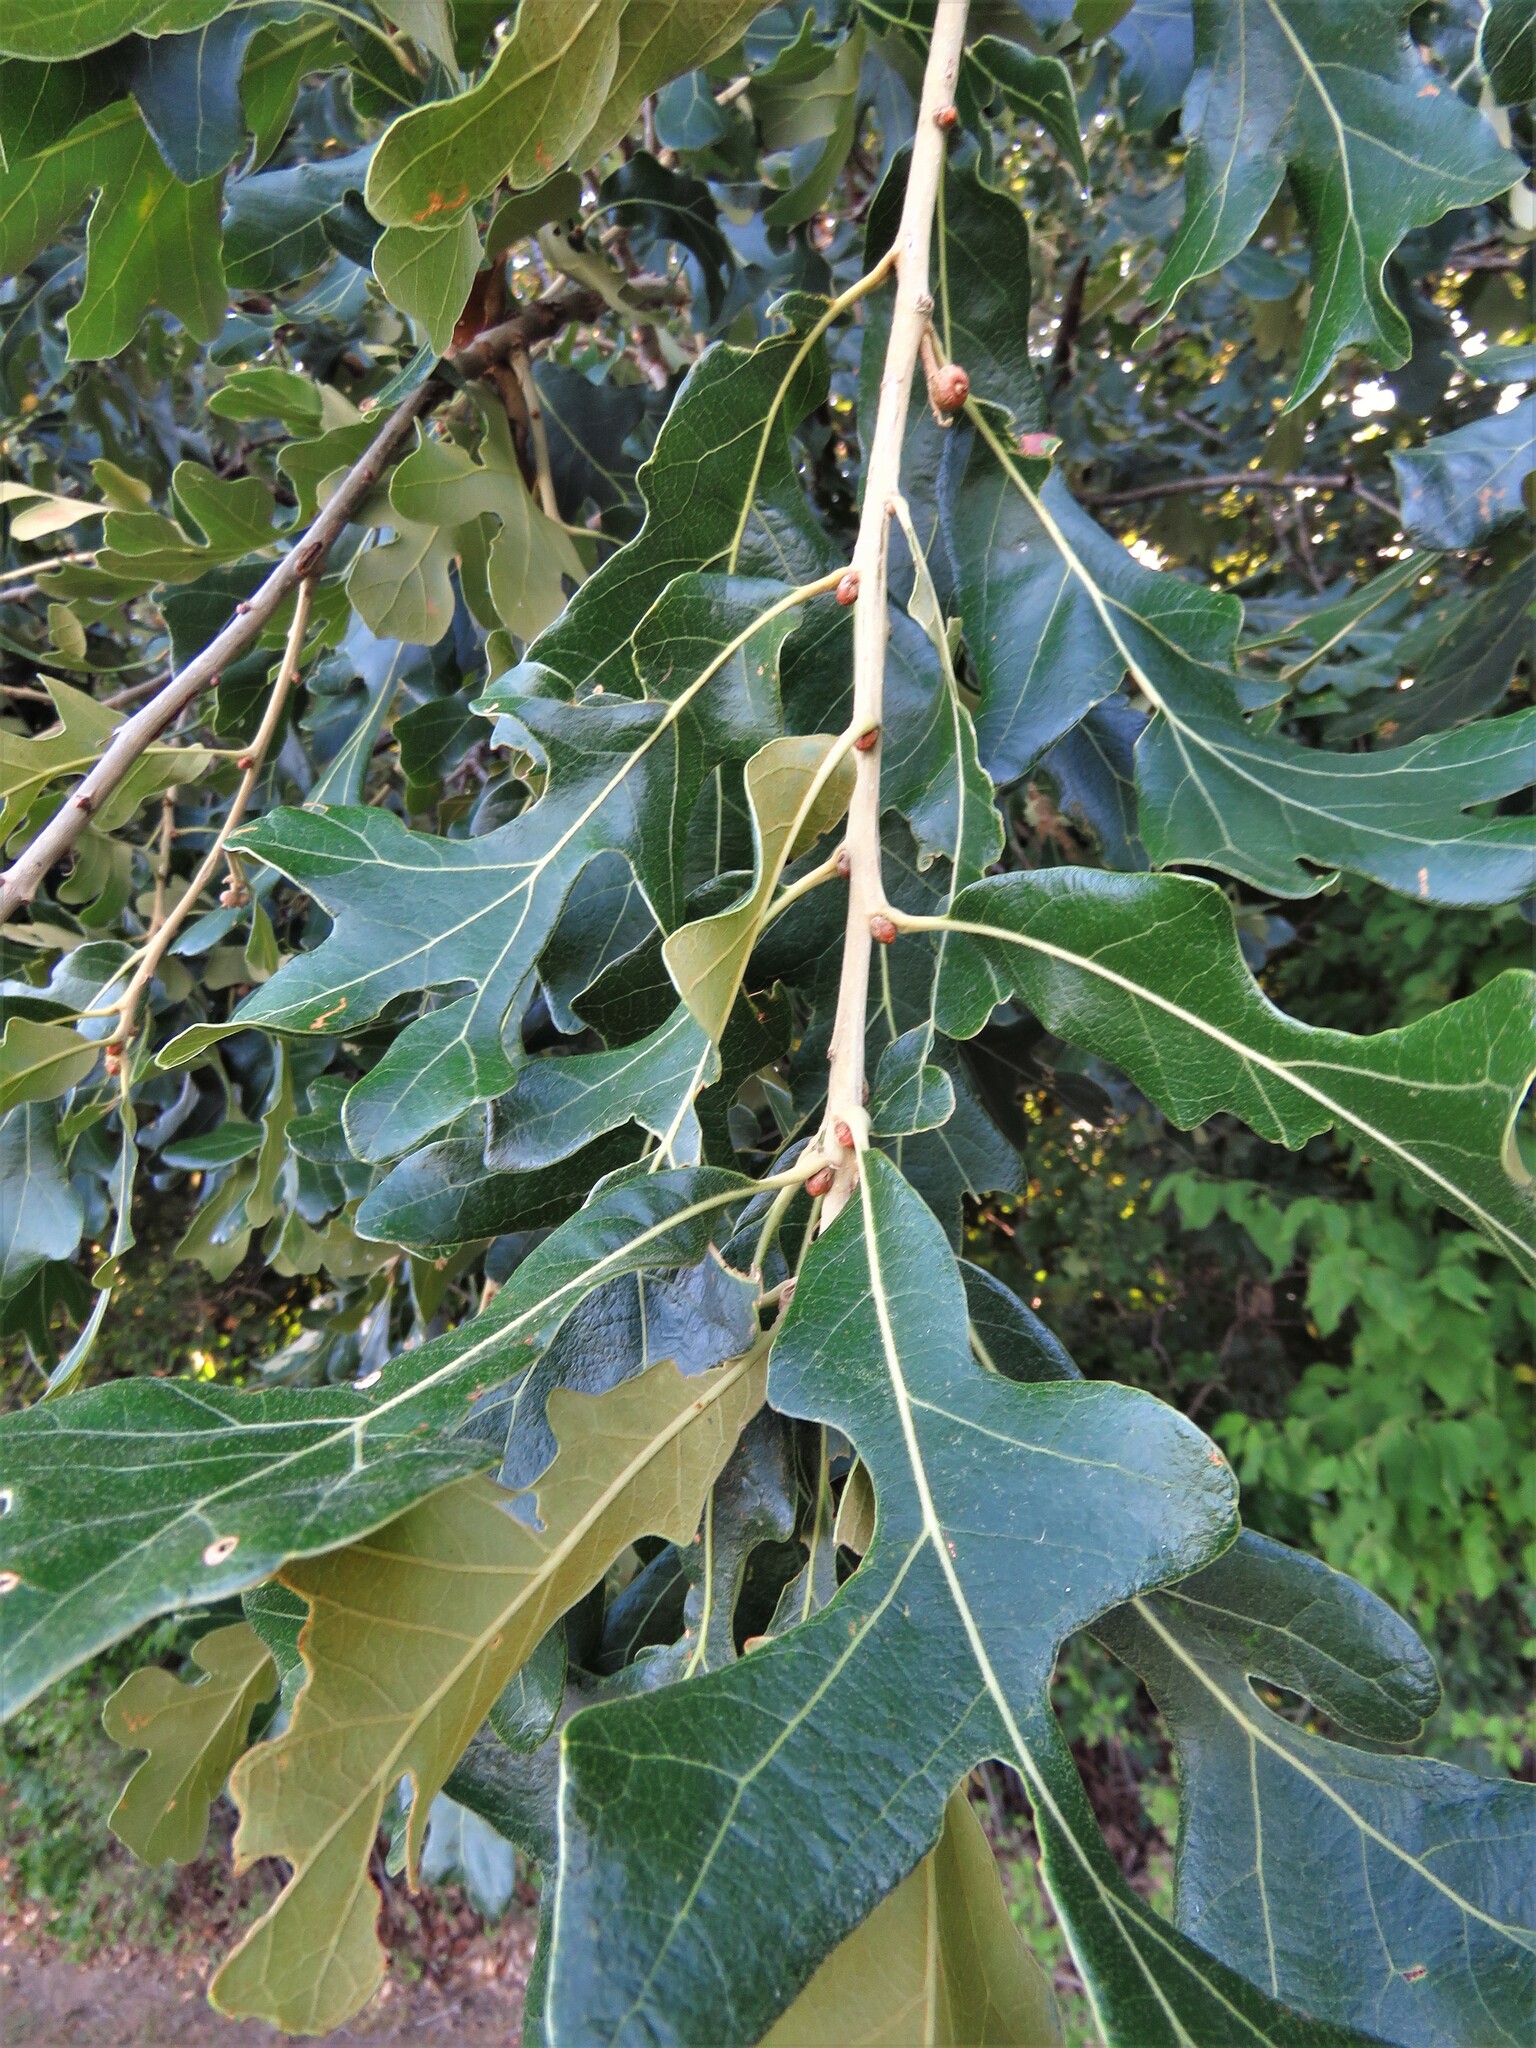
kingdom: Plantae
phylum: Tracheophyta
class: Magnoliopsida
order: Fagales
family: Fagaceae
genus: Quercus
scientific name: Quercus stellata
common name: Post oak
